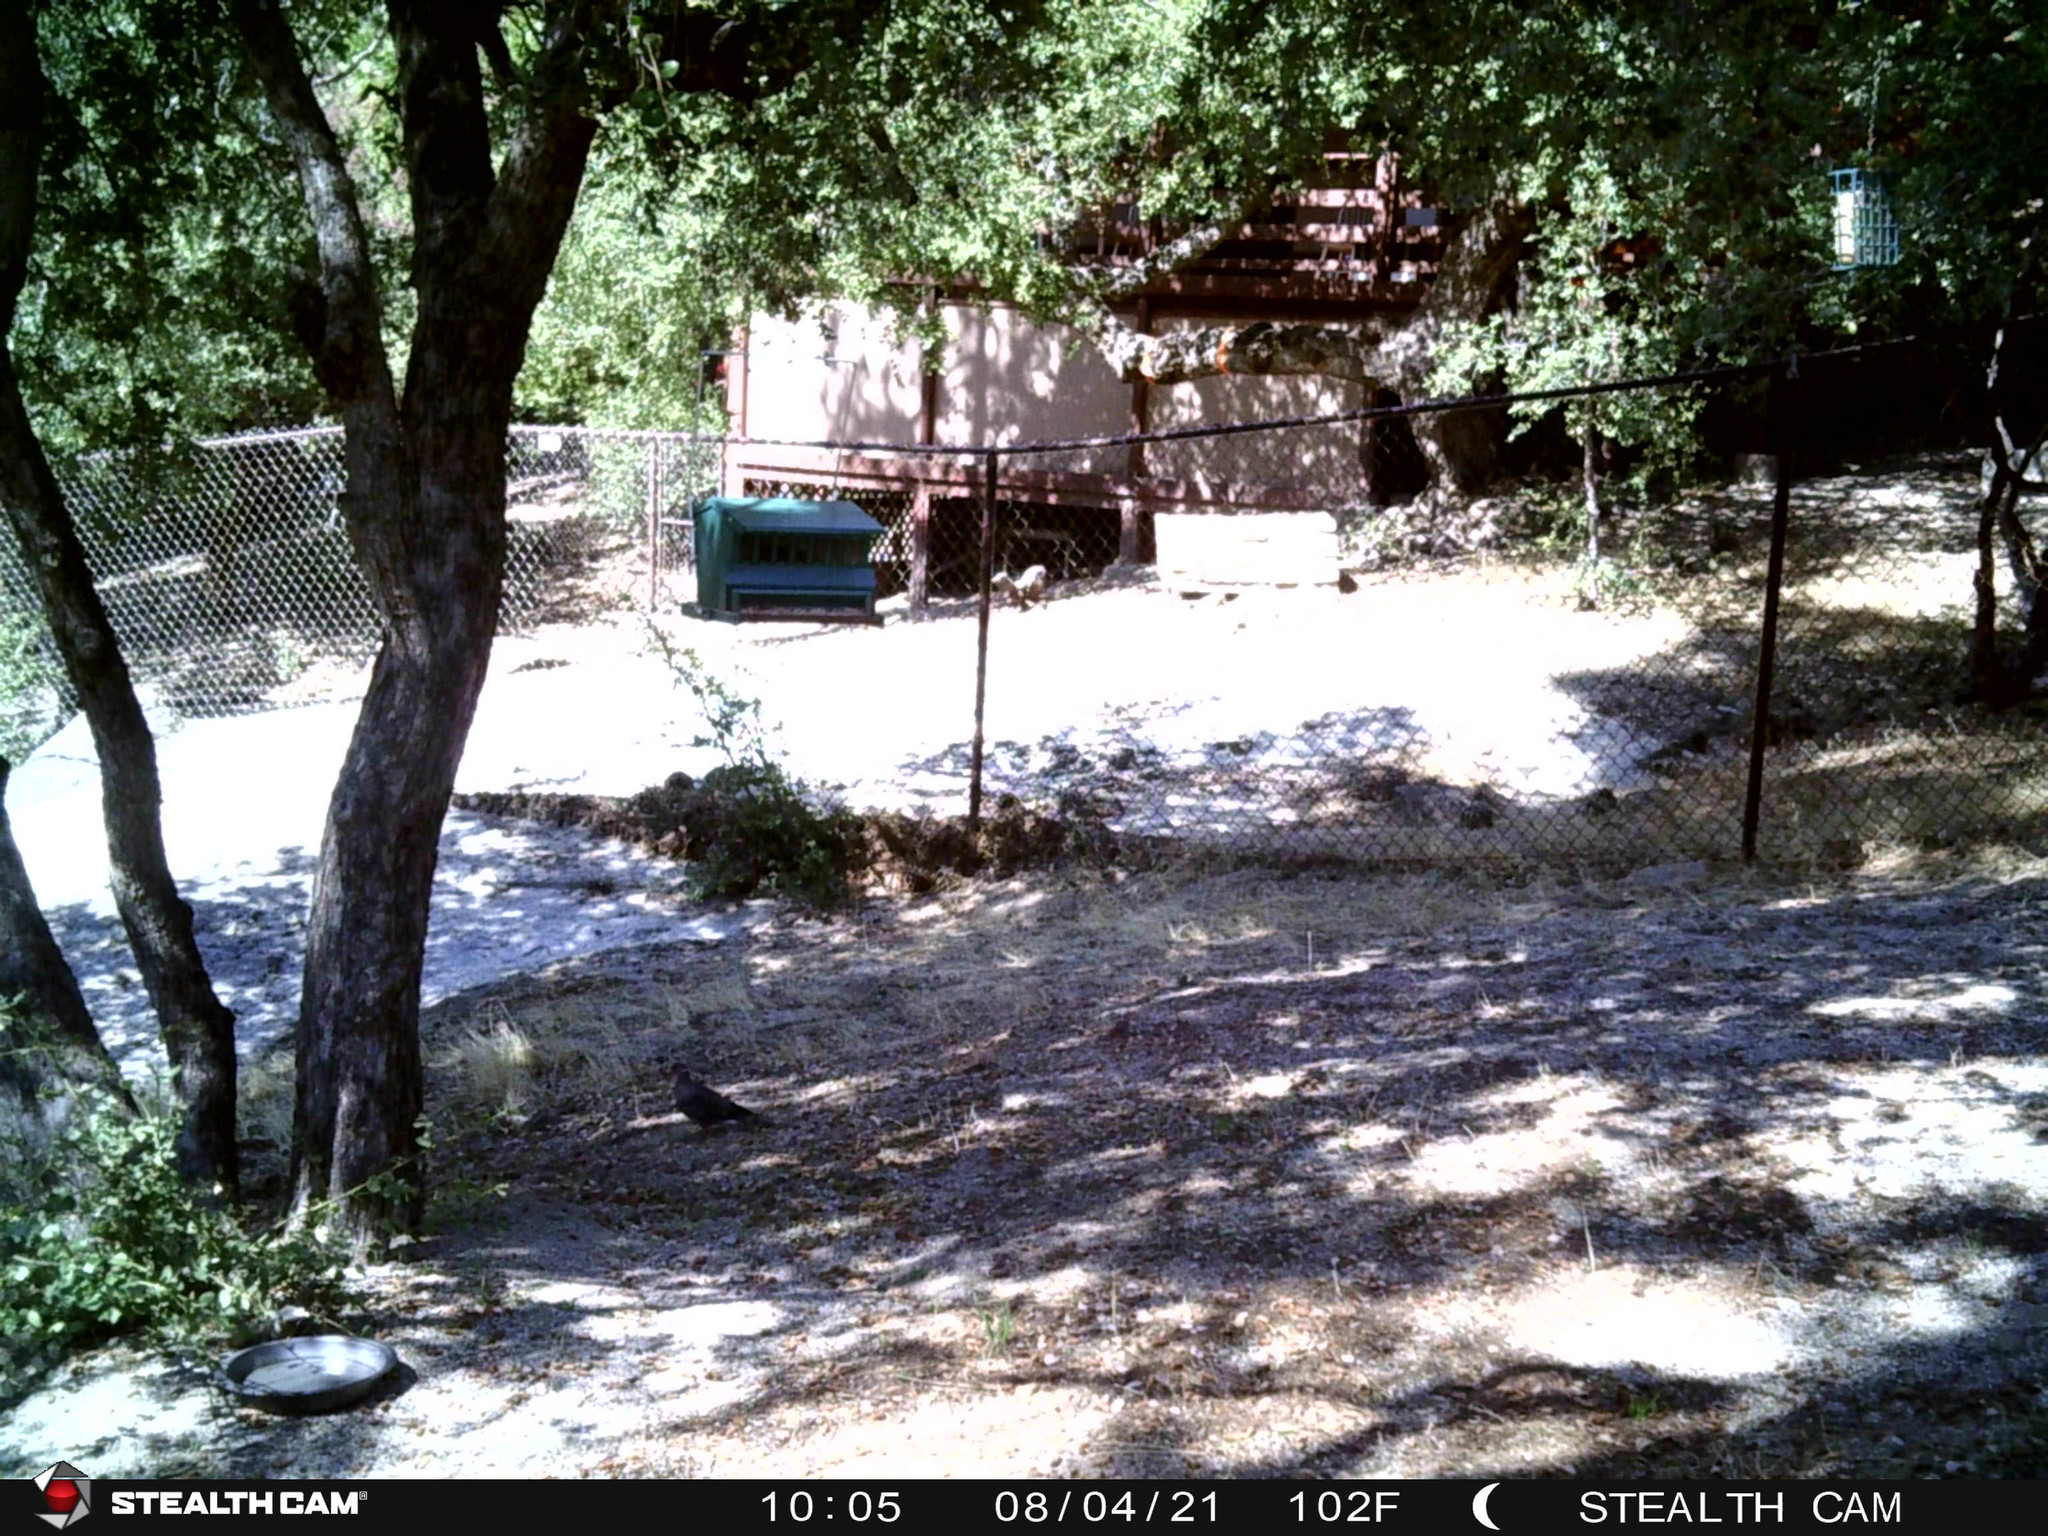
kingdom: Animalia
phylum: Chordata
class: Aves
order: Columbiformes
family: Columbidae
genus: Patagioenas
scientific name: Patagioenas fasciata
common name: Band-tailed pigeon
